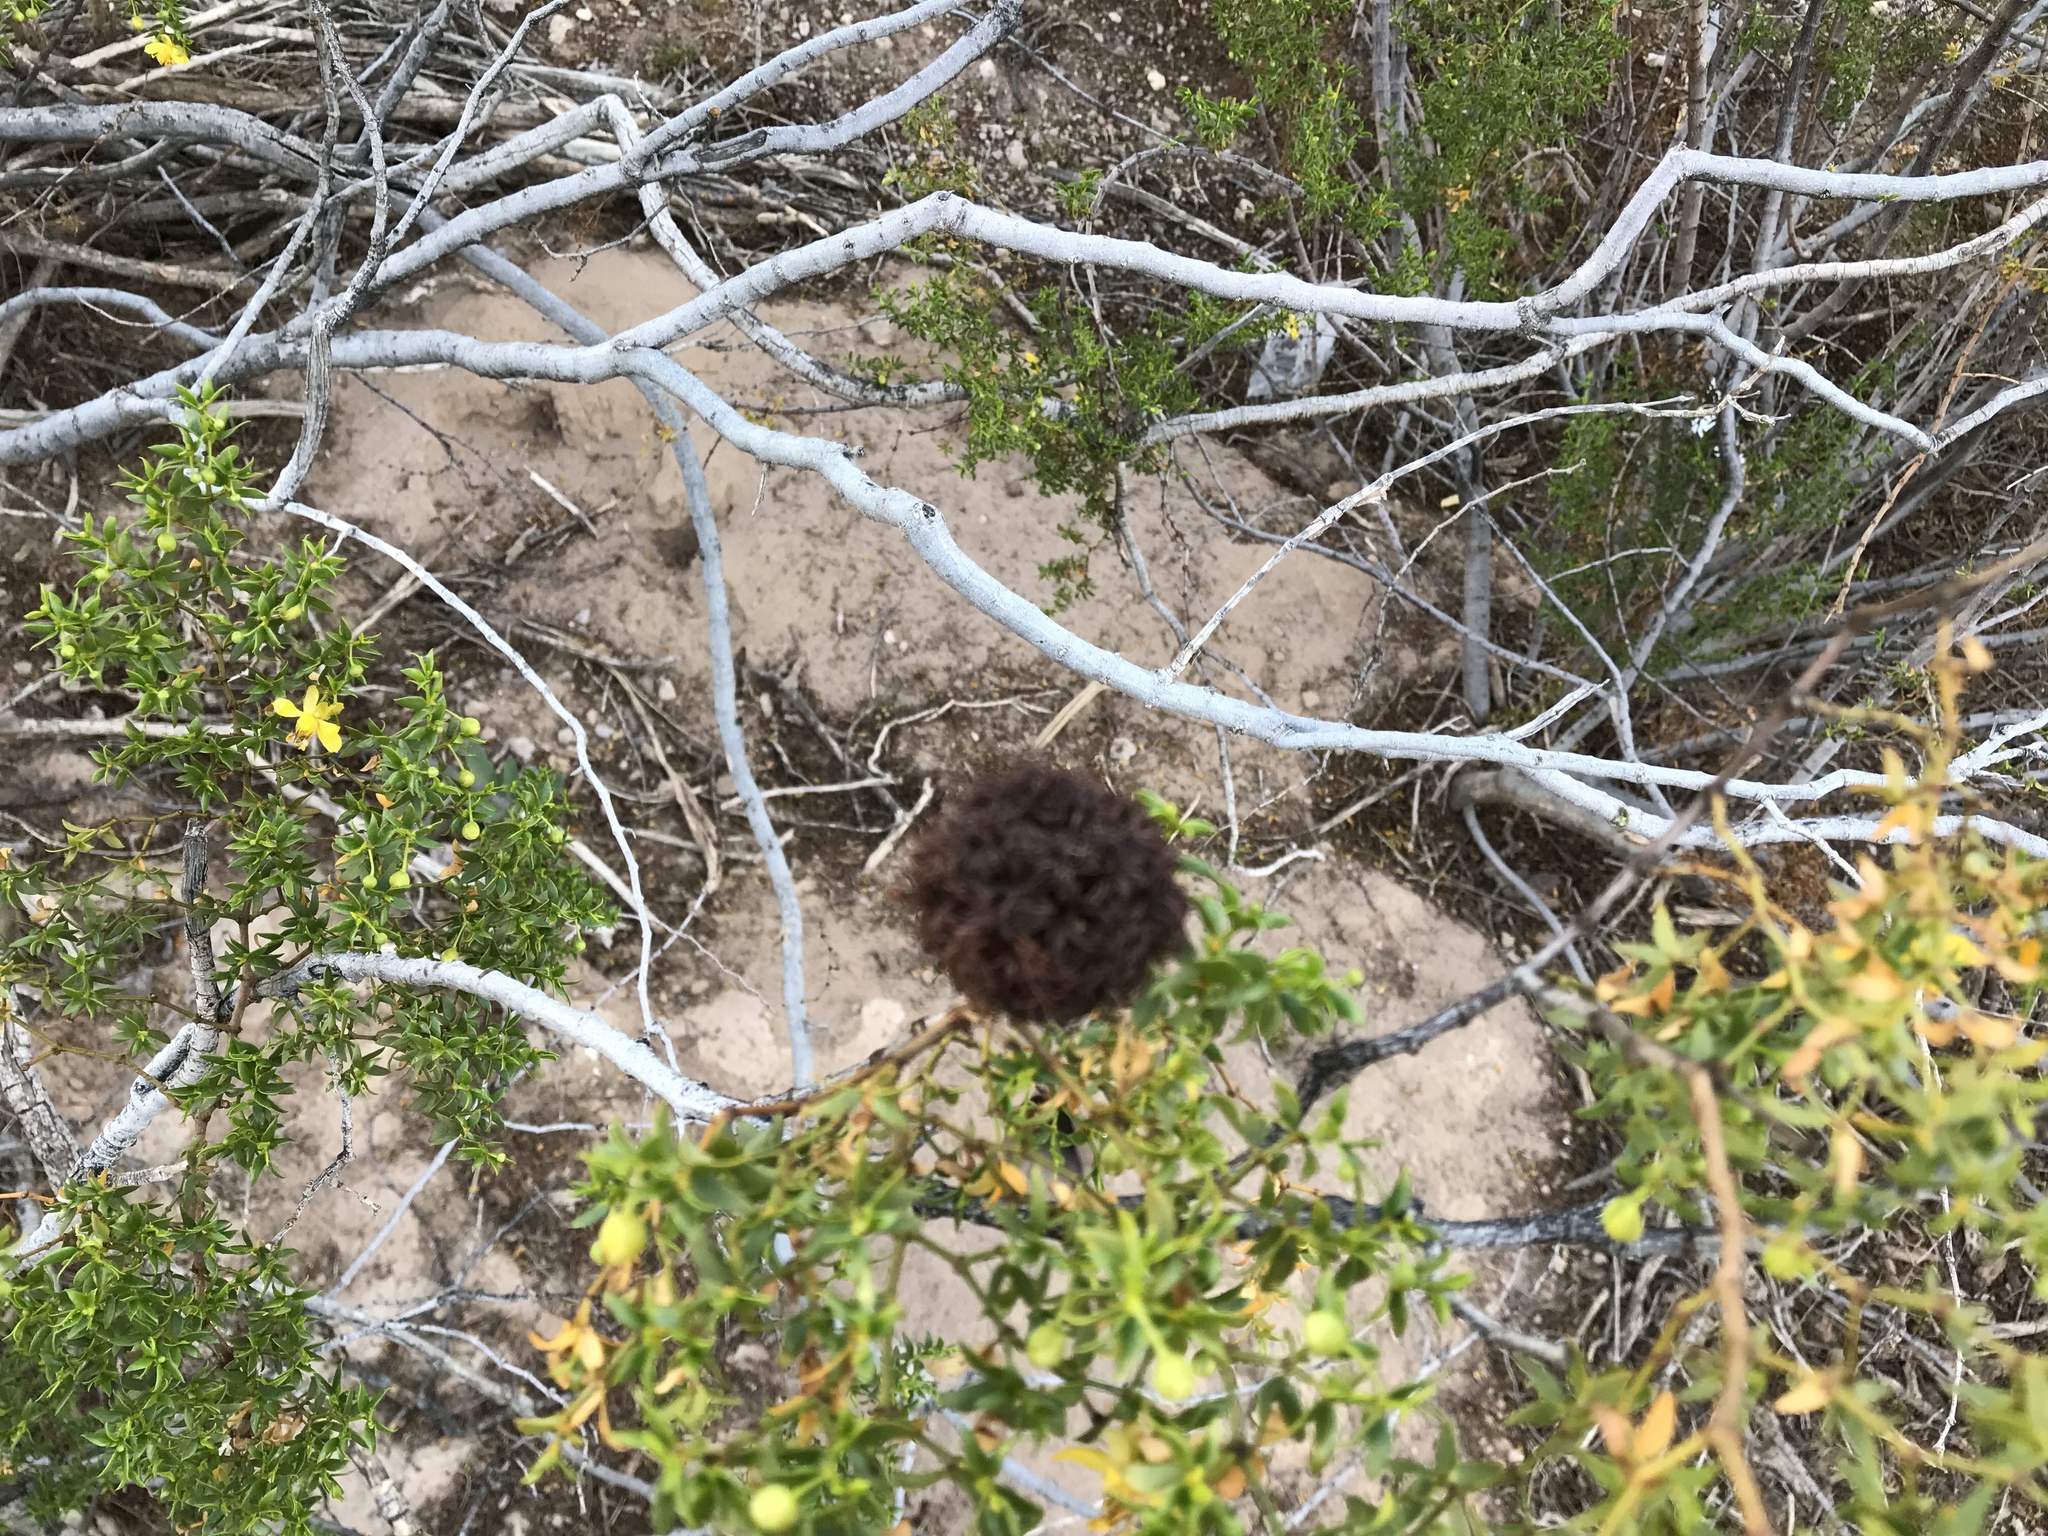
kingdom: Animalia
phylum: Arthropoda
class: Insecta
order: Diptera
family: Cecidomyiidae
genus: Asphondylia
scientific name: Asphondylia auripila
